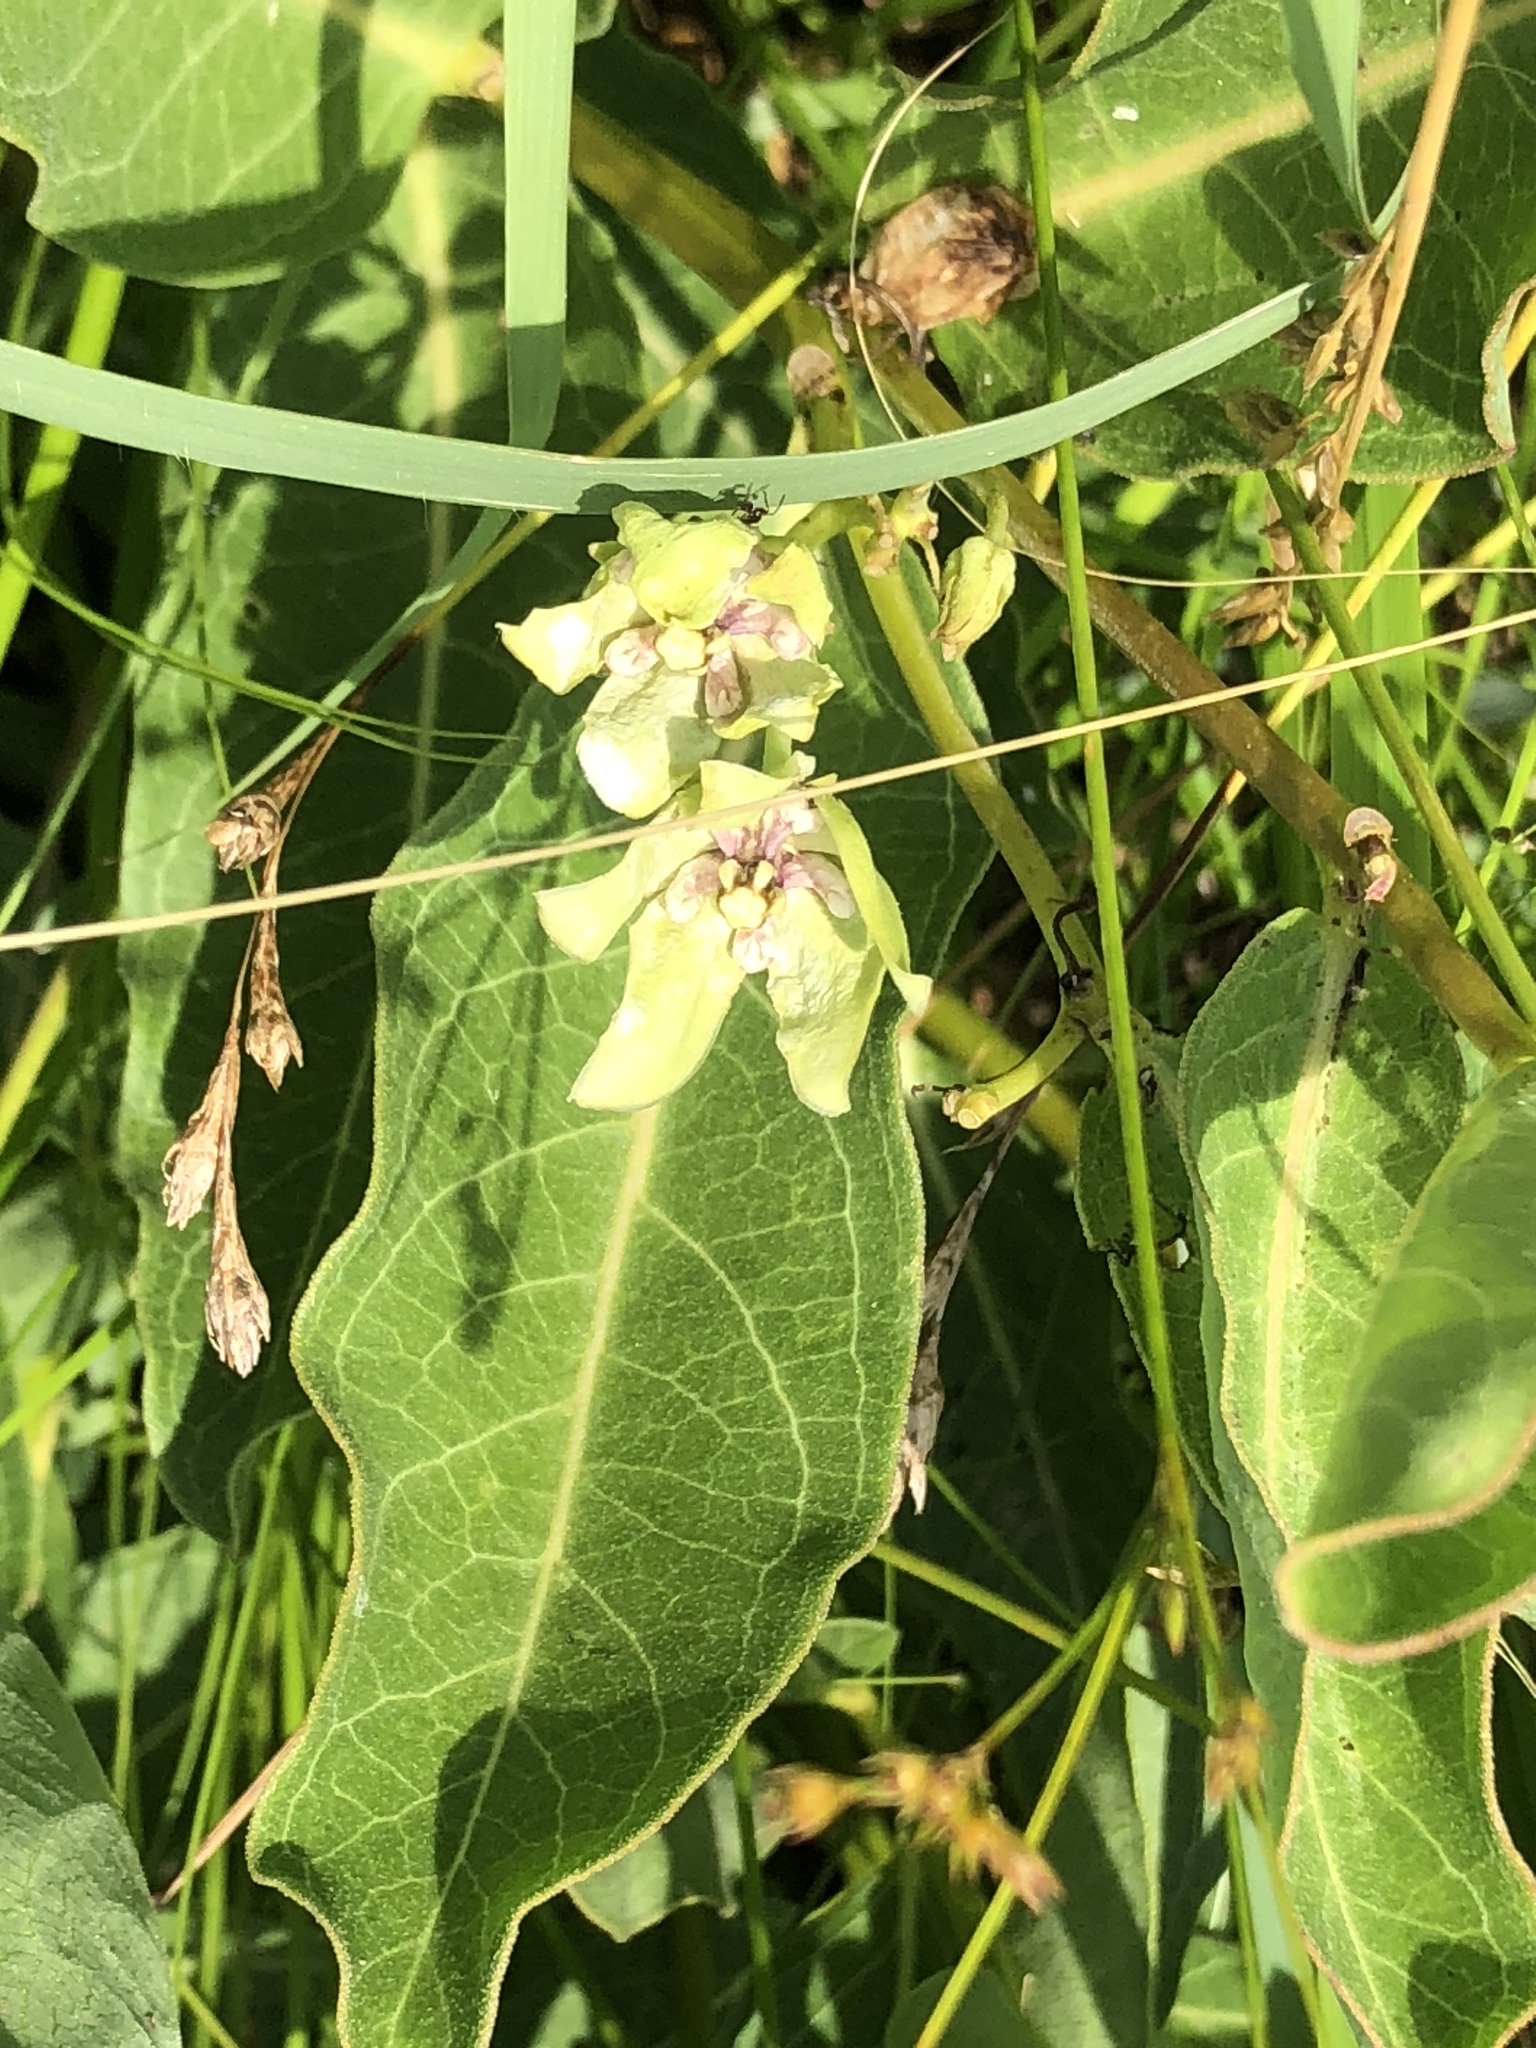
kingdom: Plantae
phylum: Tracheophyta
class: Magnoliopsida
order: Gentianales
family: Apocynaceae
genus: Asclepias
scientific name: Asclepias viridis
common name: Antelope-horns
